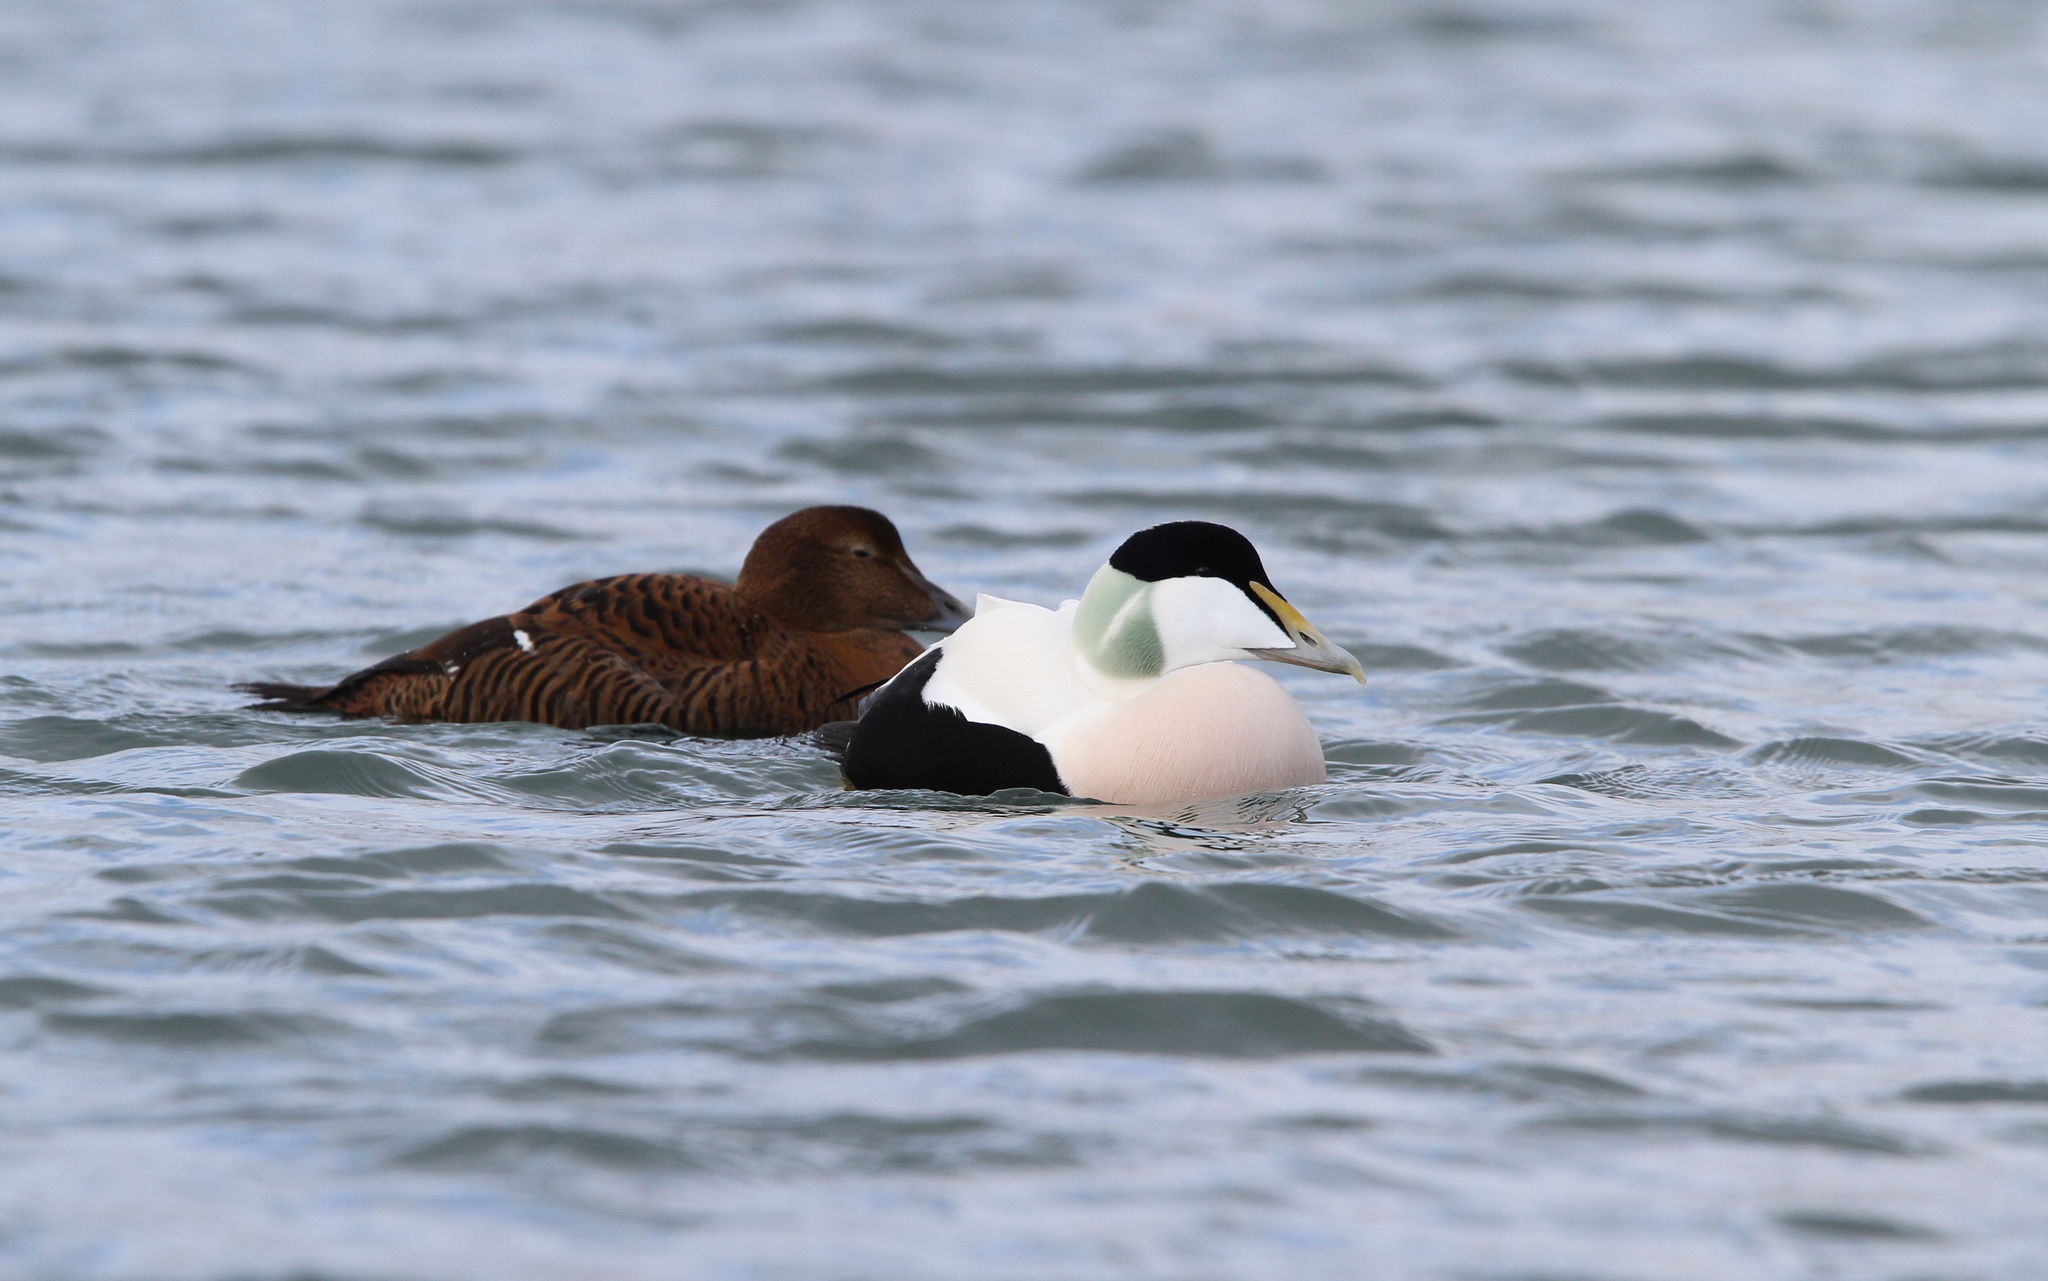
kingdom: Animalia
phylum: Chordata
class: Aves
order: Anseriformes
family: Anatidae
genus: Somateria
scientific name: Somateria mollissima
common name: Common eider
